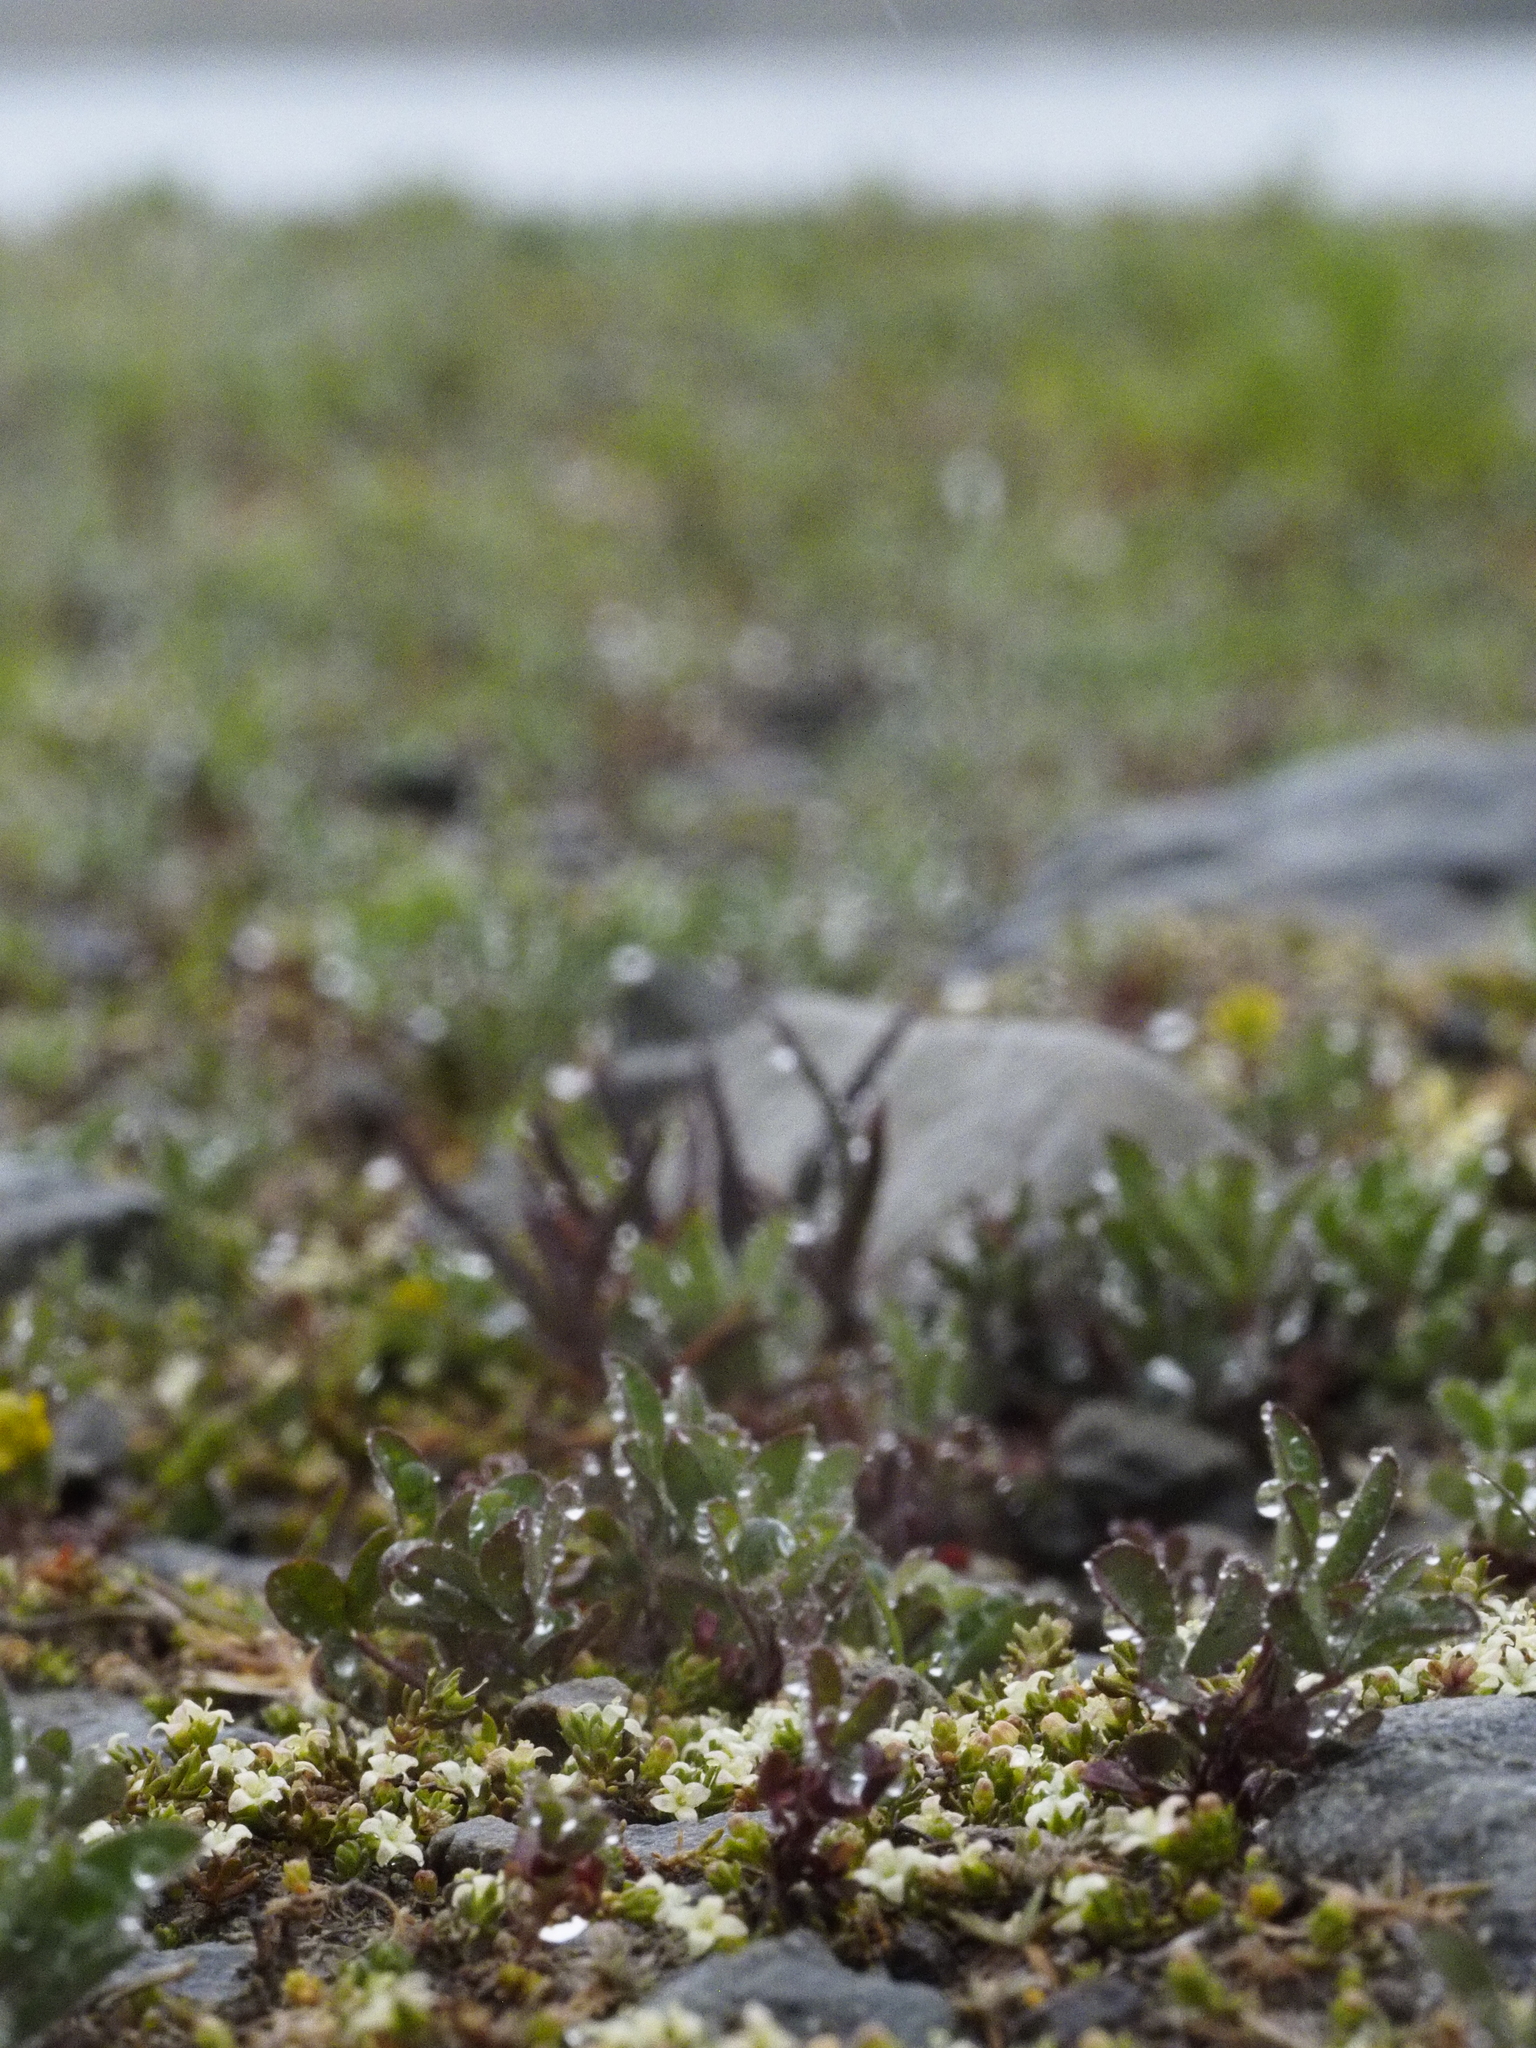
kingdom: Plantae
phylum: Tracheophyta
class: Magnoliopsida
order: Gentianales
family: Rubiaceae
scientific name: Rubiaceae
